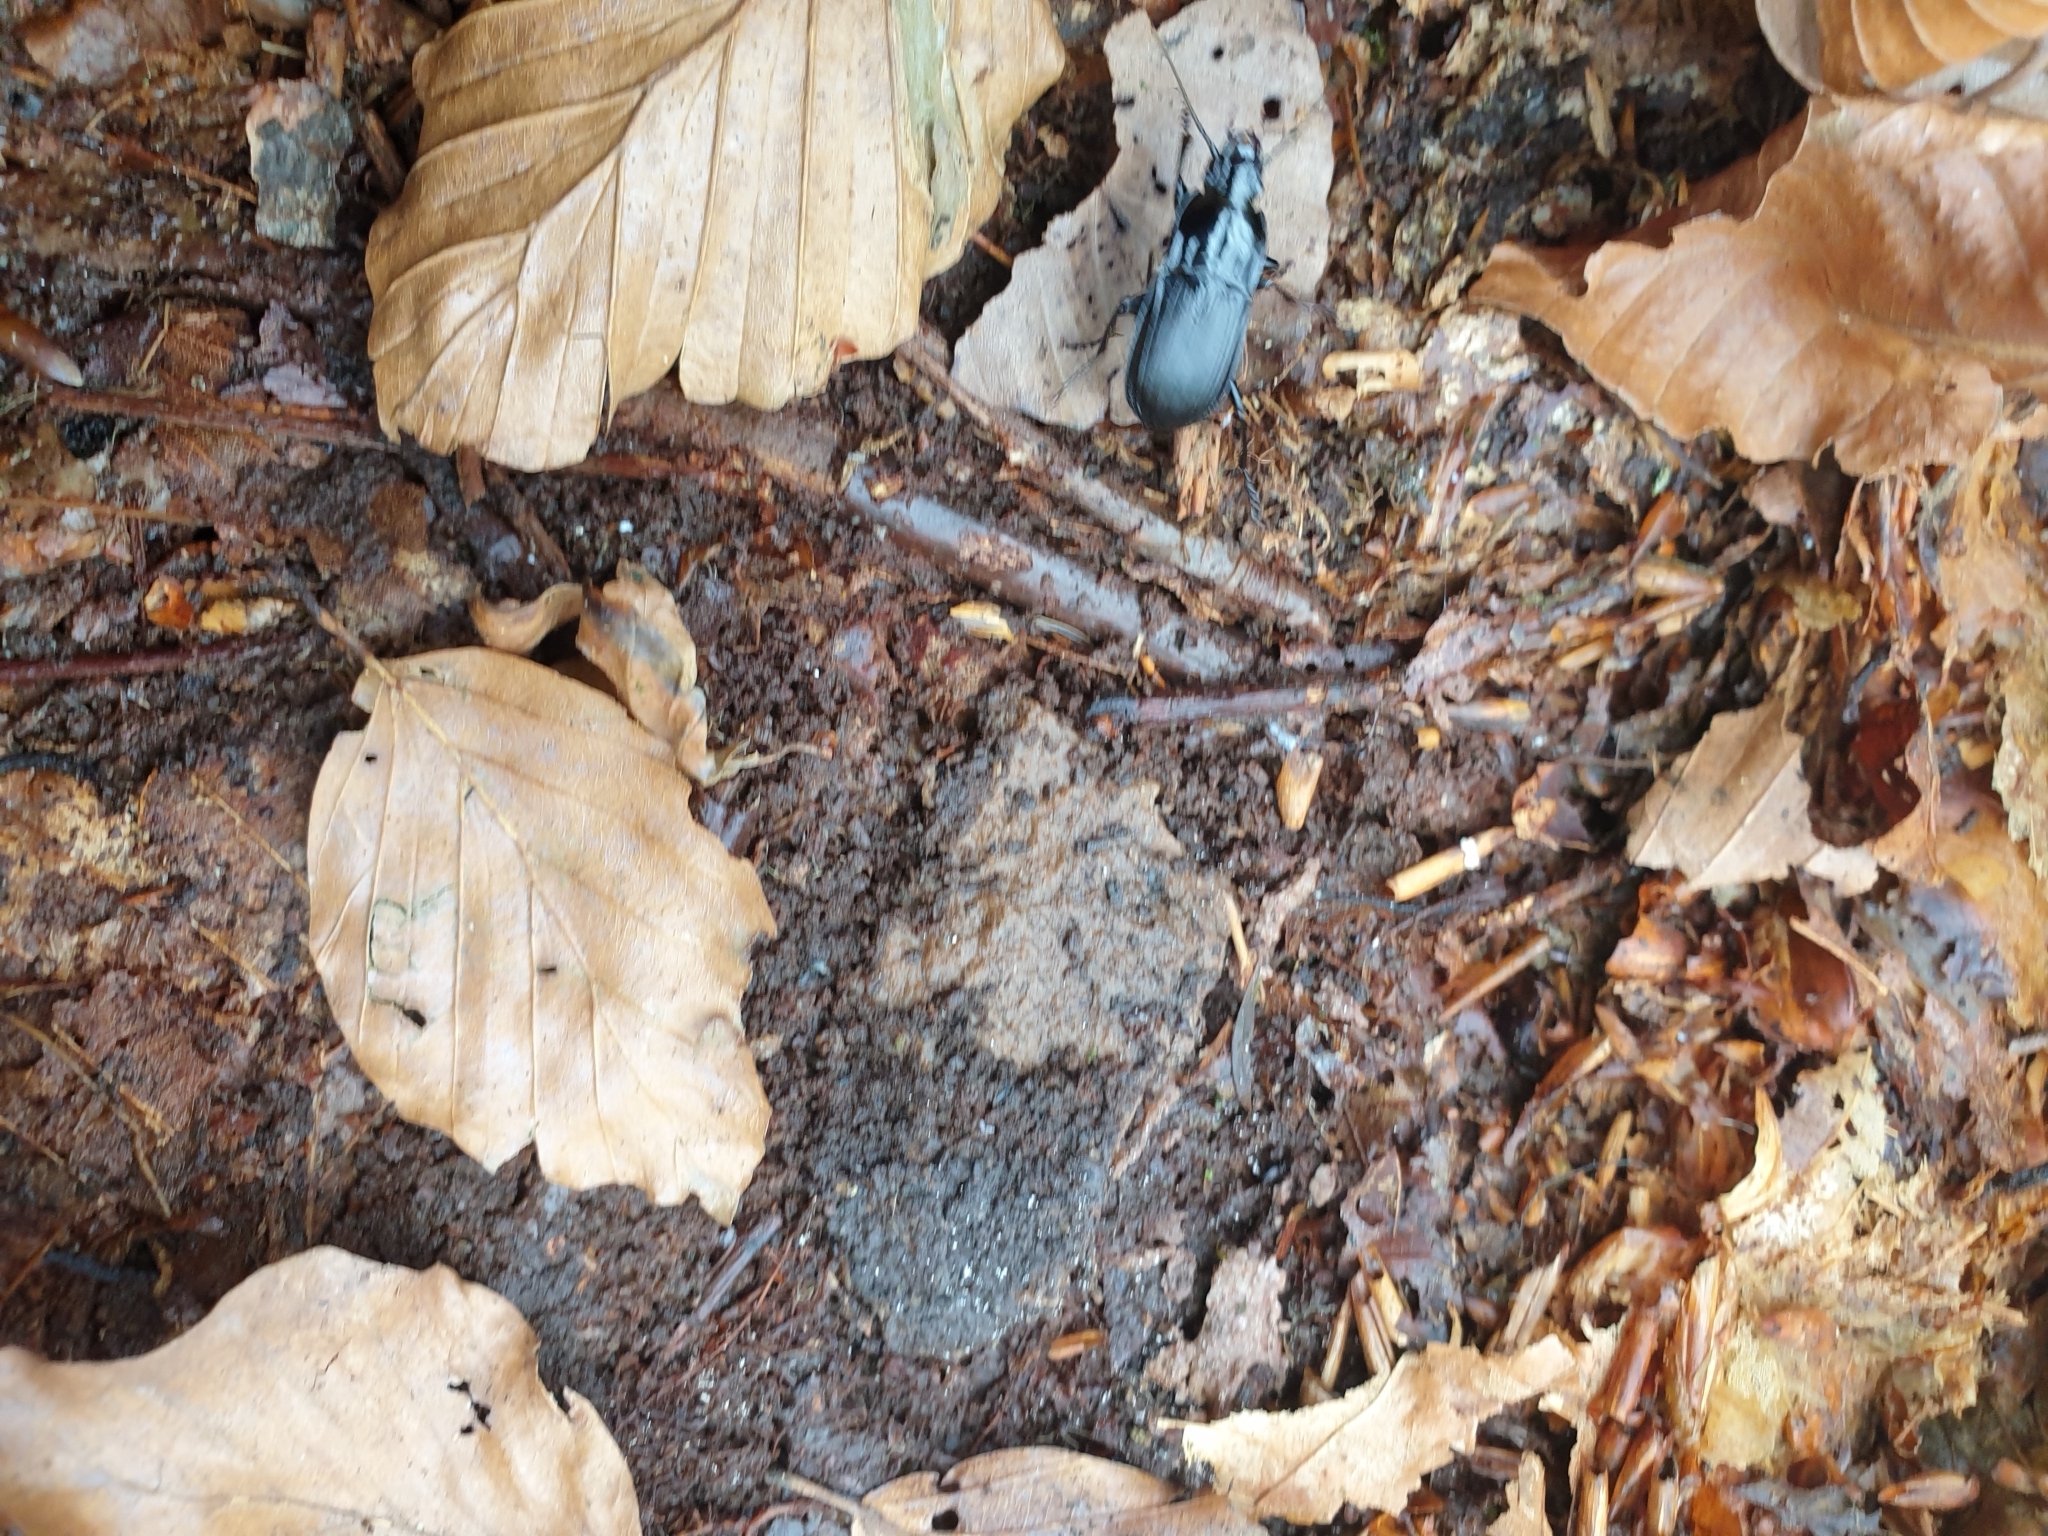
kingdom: Animalia
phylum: Arthropoda
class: Insecta
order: Coleoptera
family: Carabidae
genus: Abax
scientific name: Abax parallelepipedus
